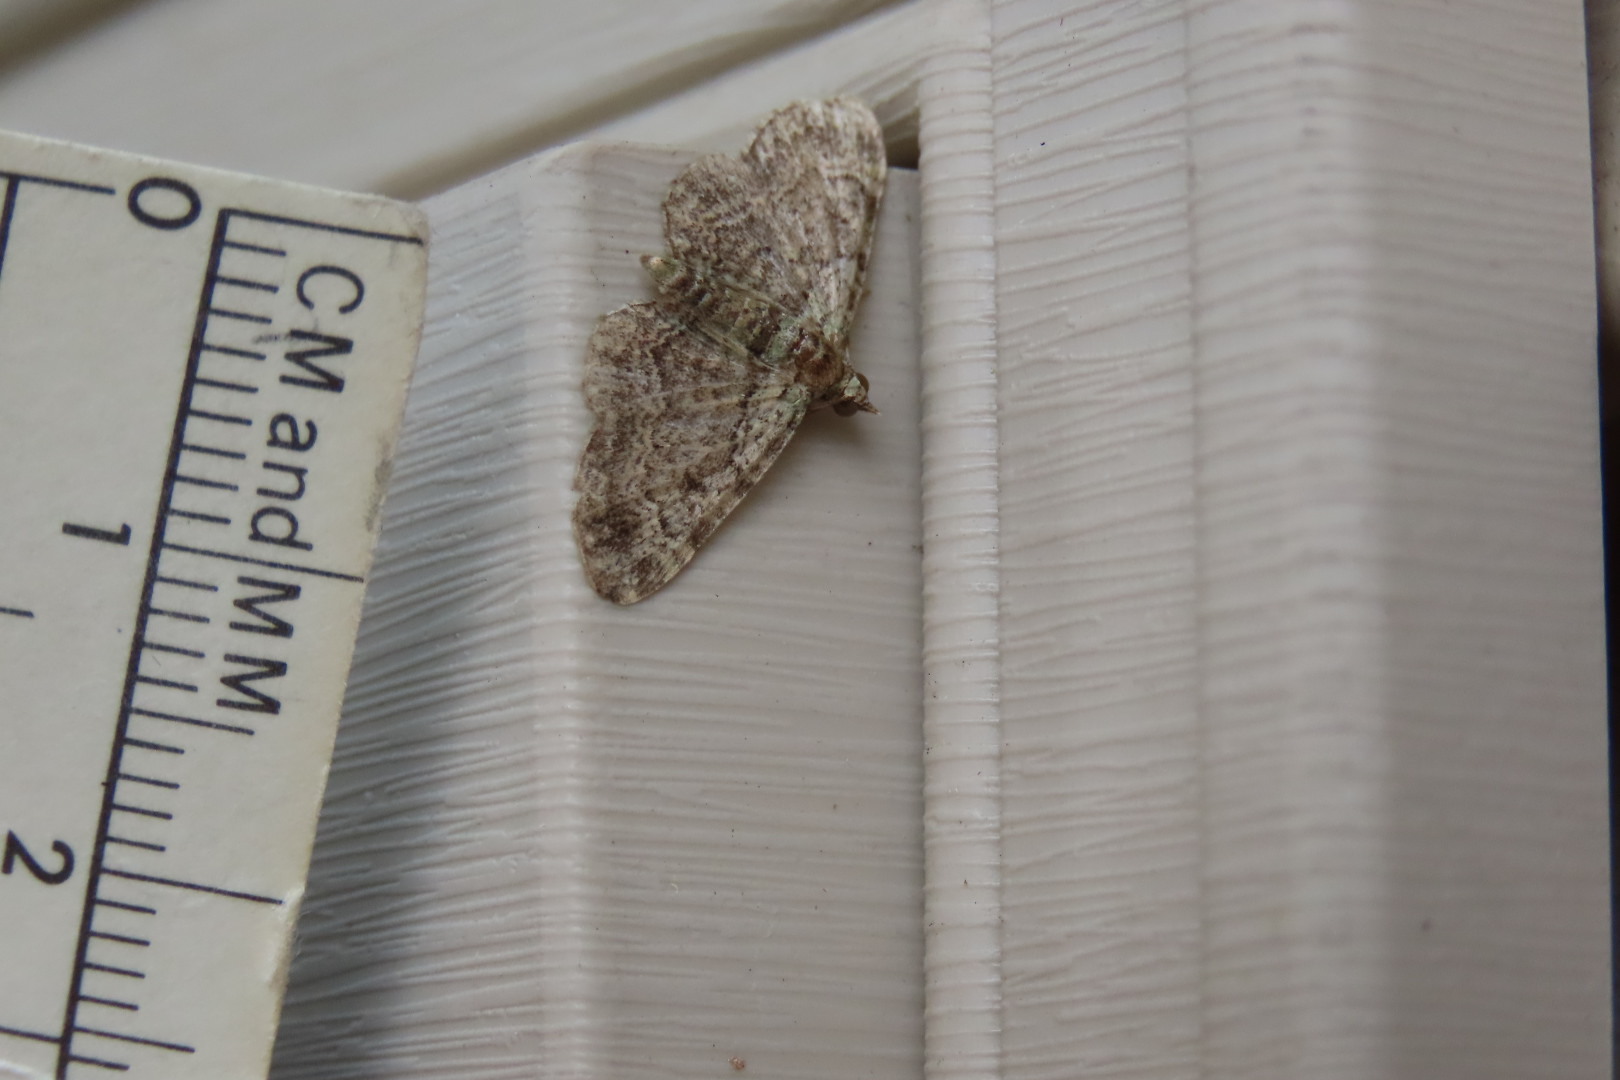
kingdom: Animalia
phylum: Arthropoda
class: Insecta
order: Lepidoptera
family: Geometridae
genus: Pasiphila
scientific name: Pasiphila rectangulata
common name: Green pug
